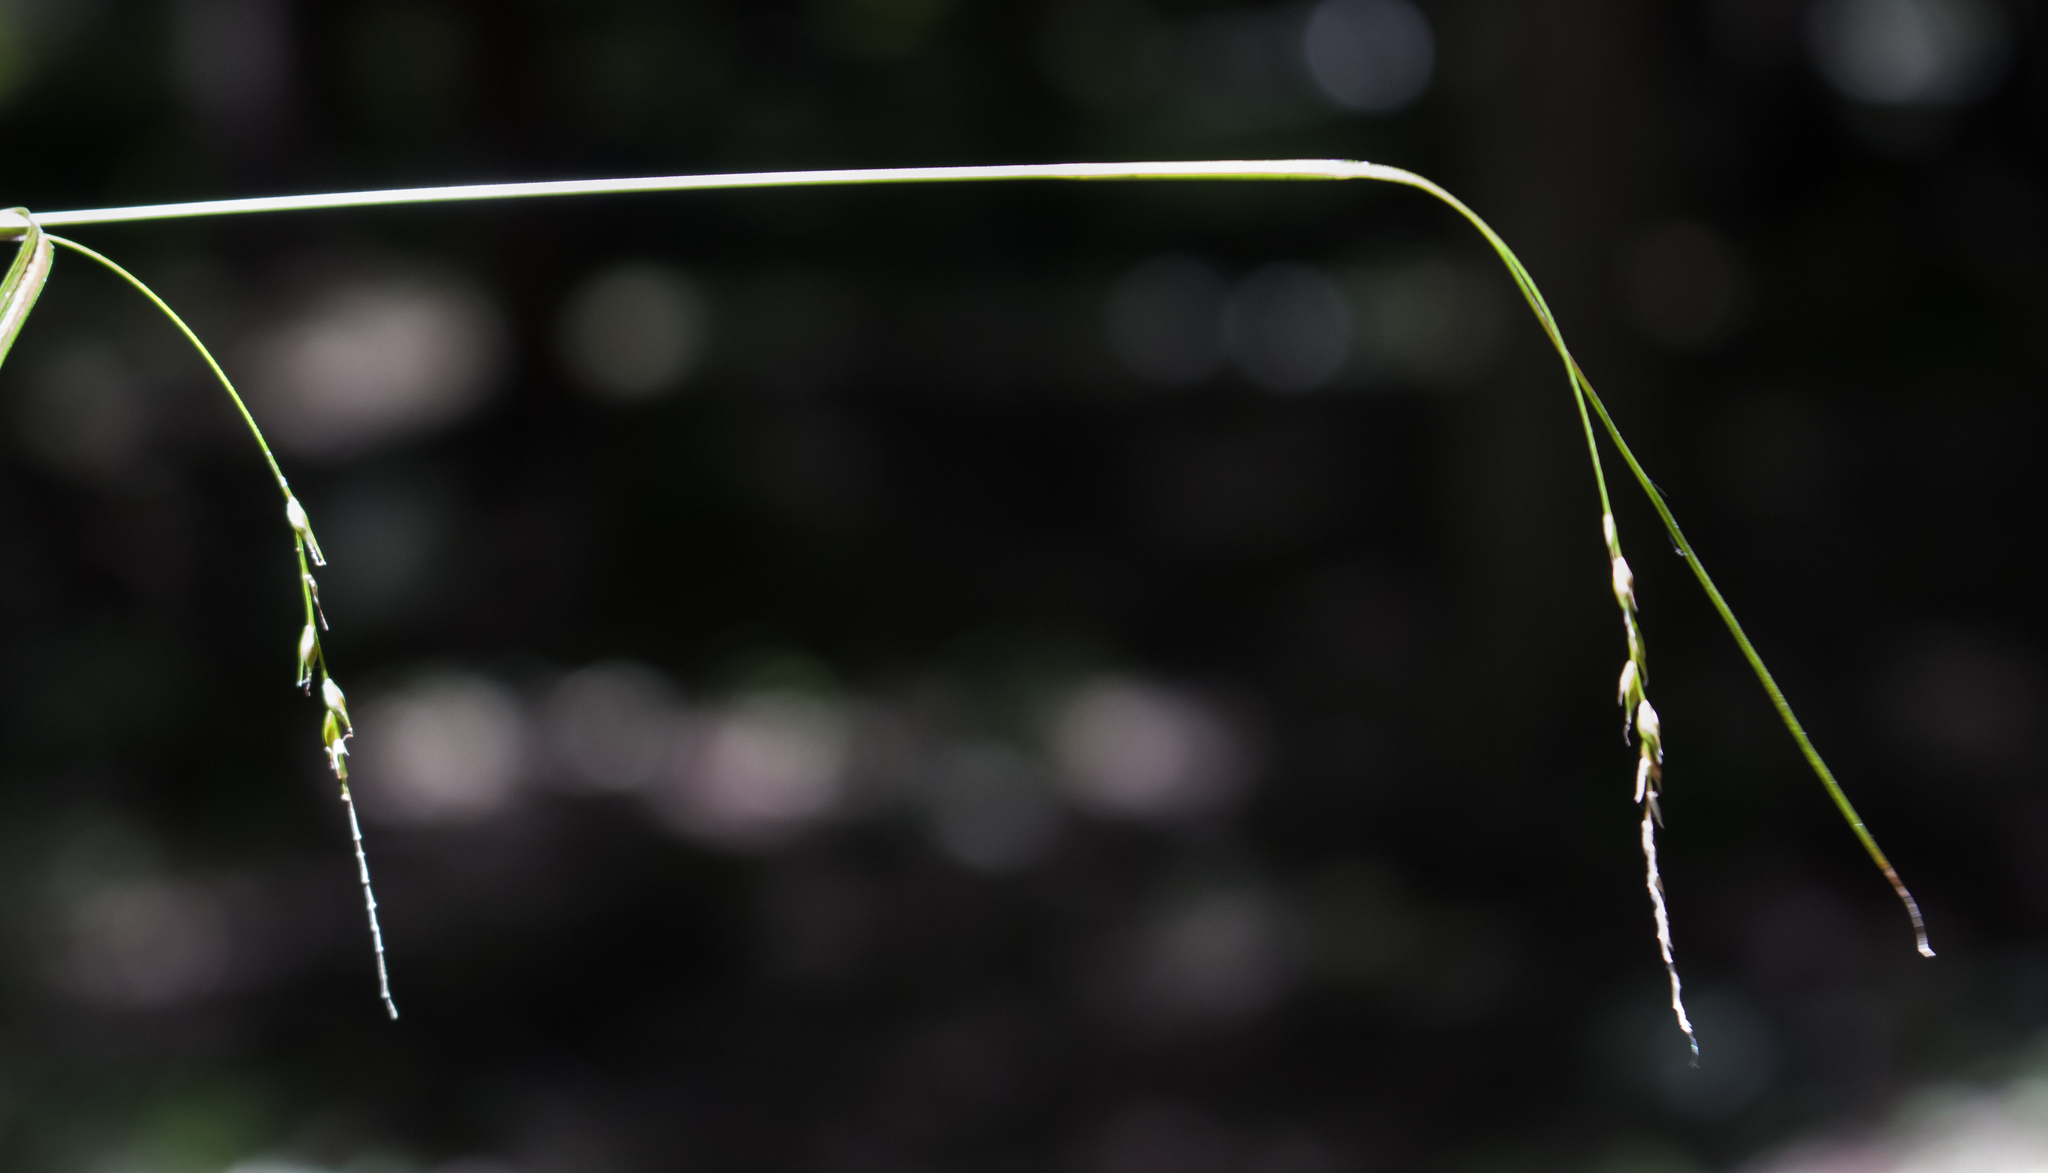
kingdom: Plantae
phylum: Tracheophyta
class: Liliopsida
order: Poales
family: Cyperaceae
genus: Carex
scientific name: Carex arctata
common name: Black sedge
